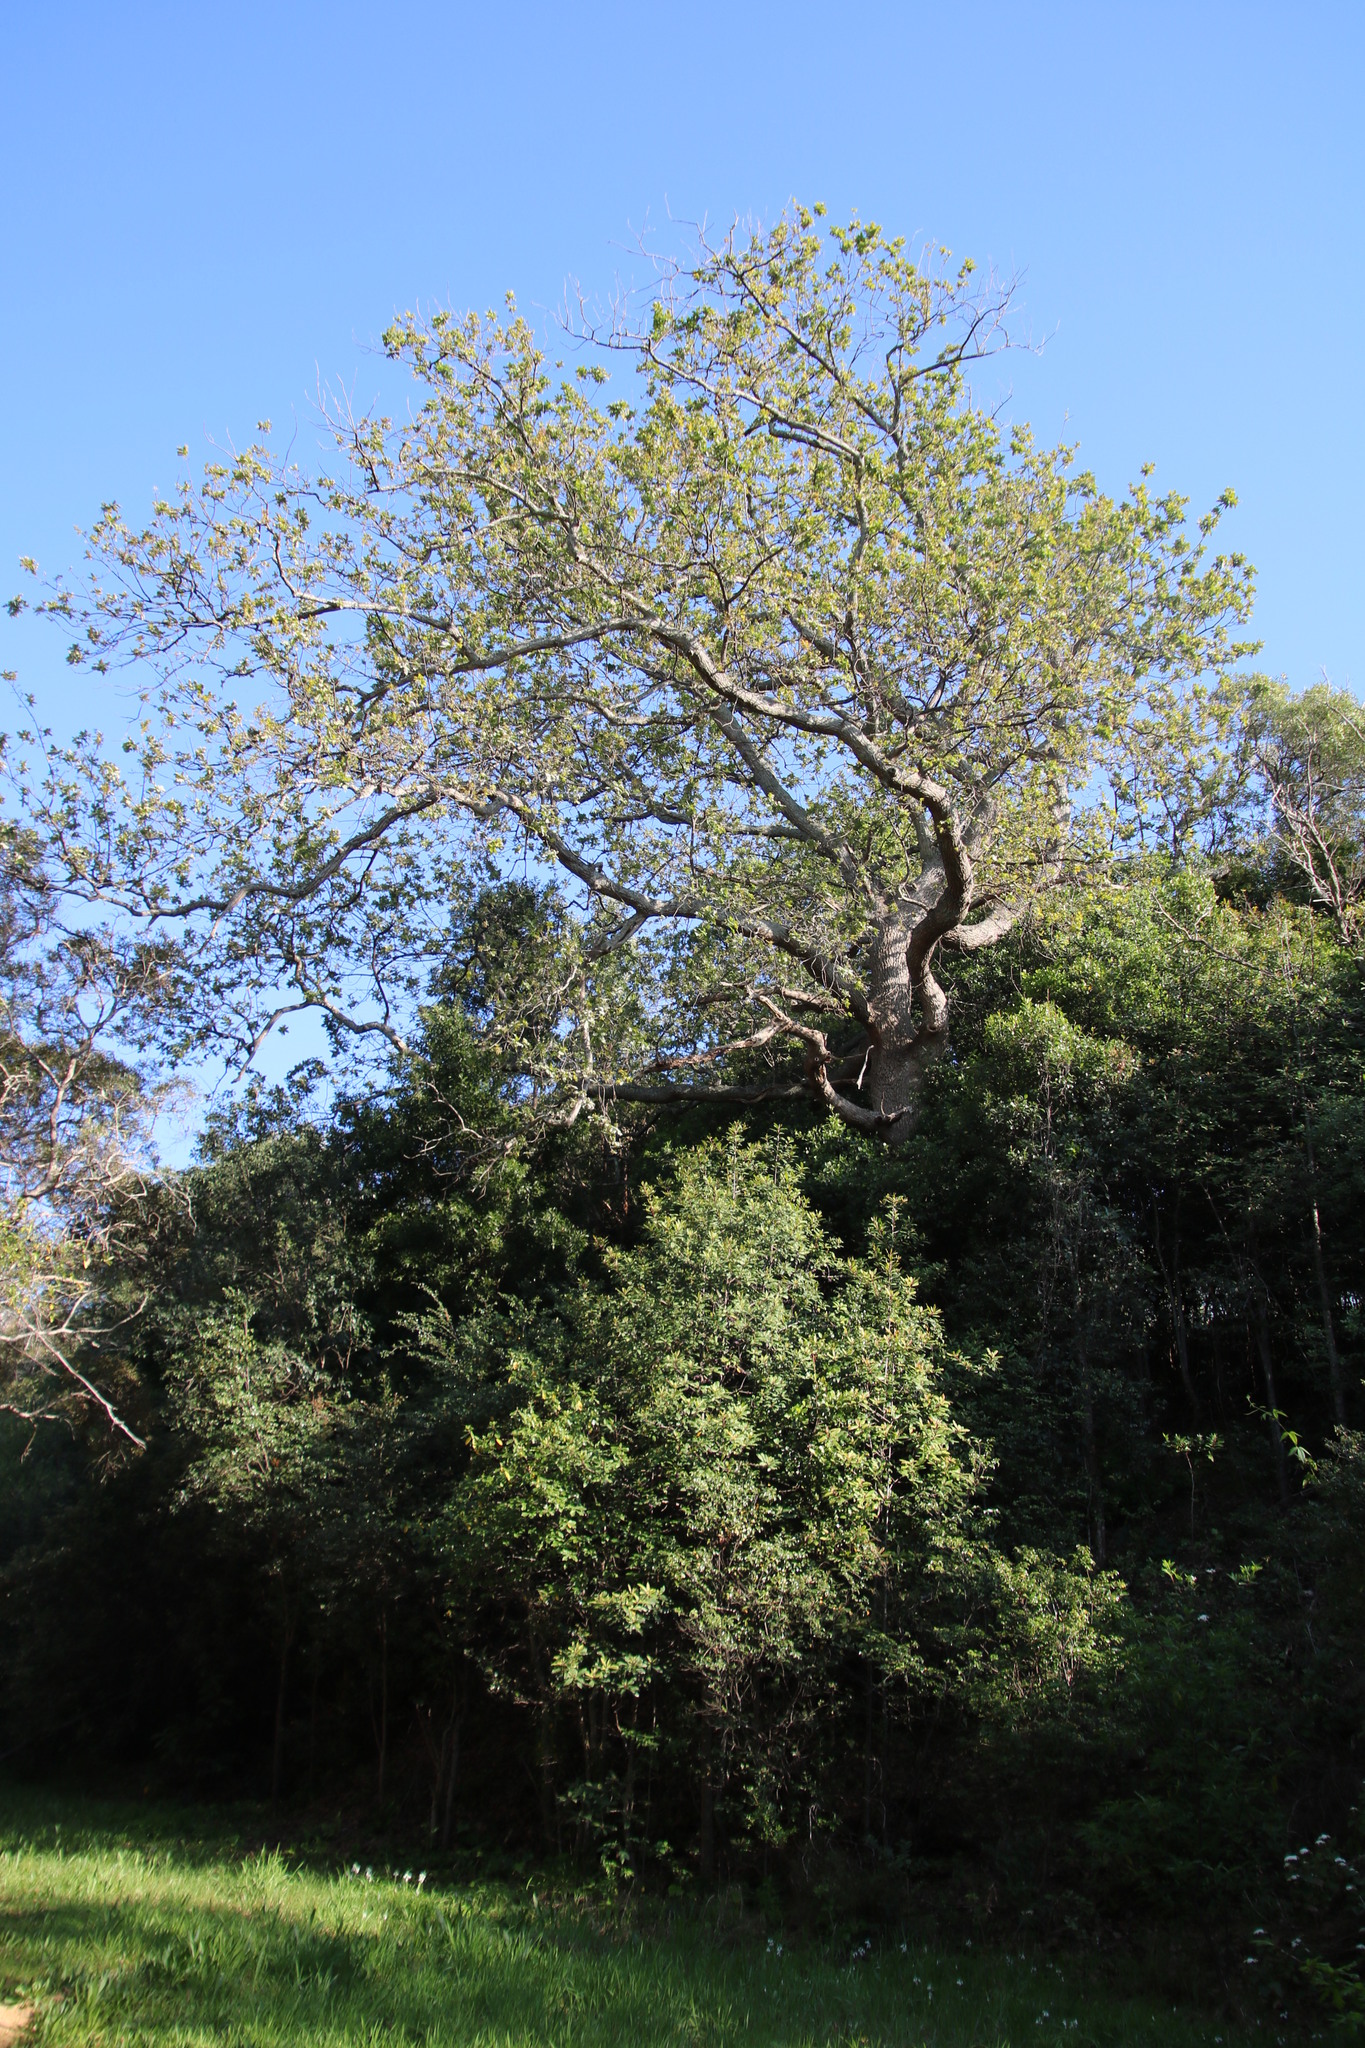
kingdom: Fungi
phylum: Ascomycota
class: Leotiomycetes
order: Helotiales
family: Erysiphaceae
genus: Erysiphe
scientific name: Erysiphe alphitoides
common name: Oak mildew
